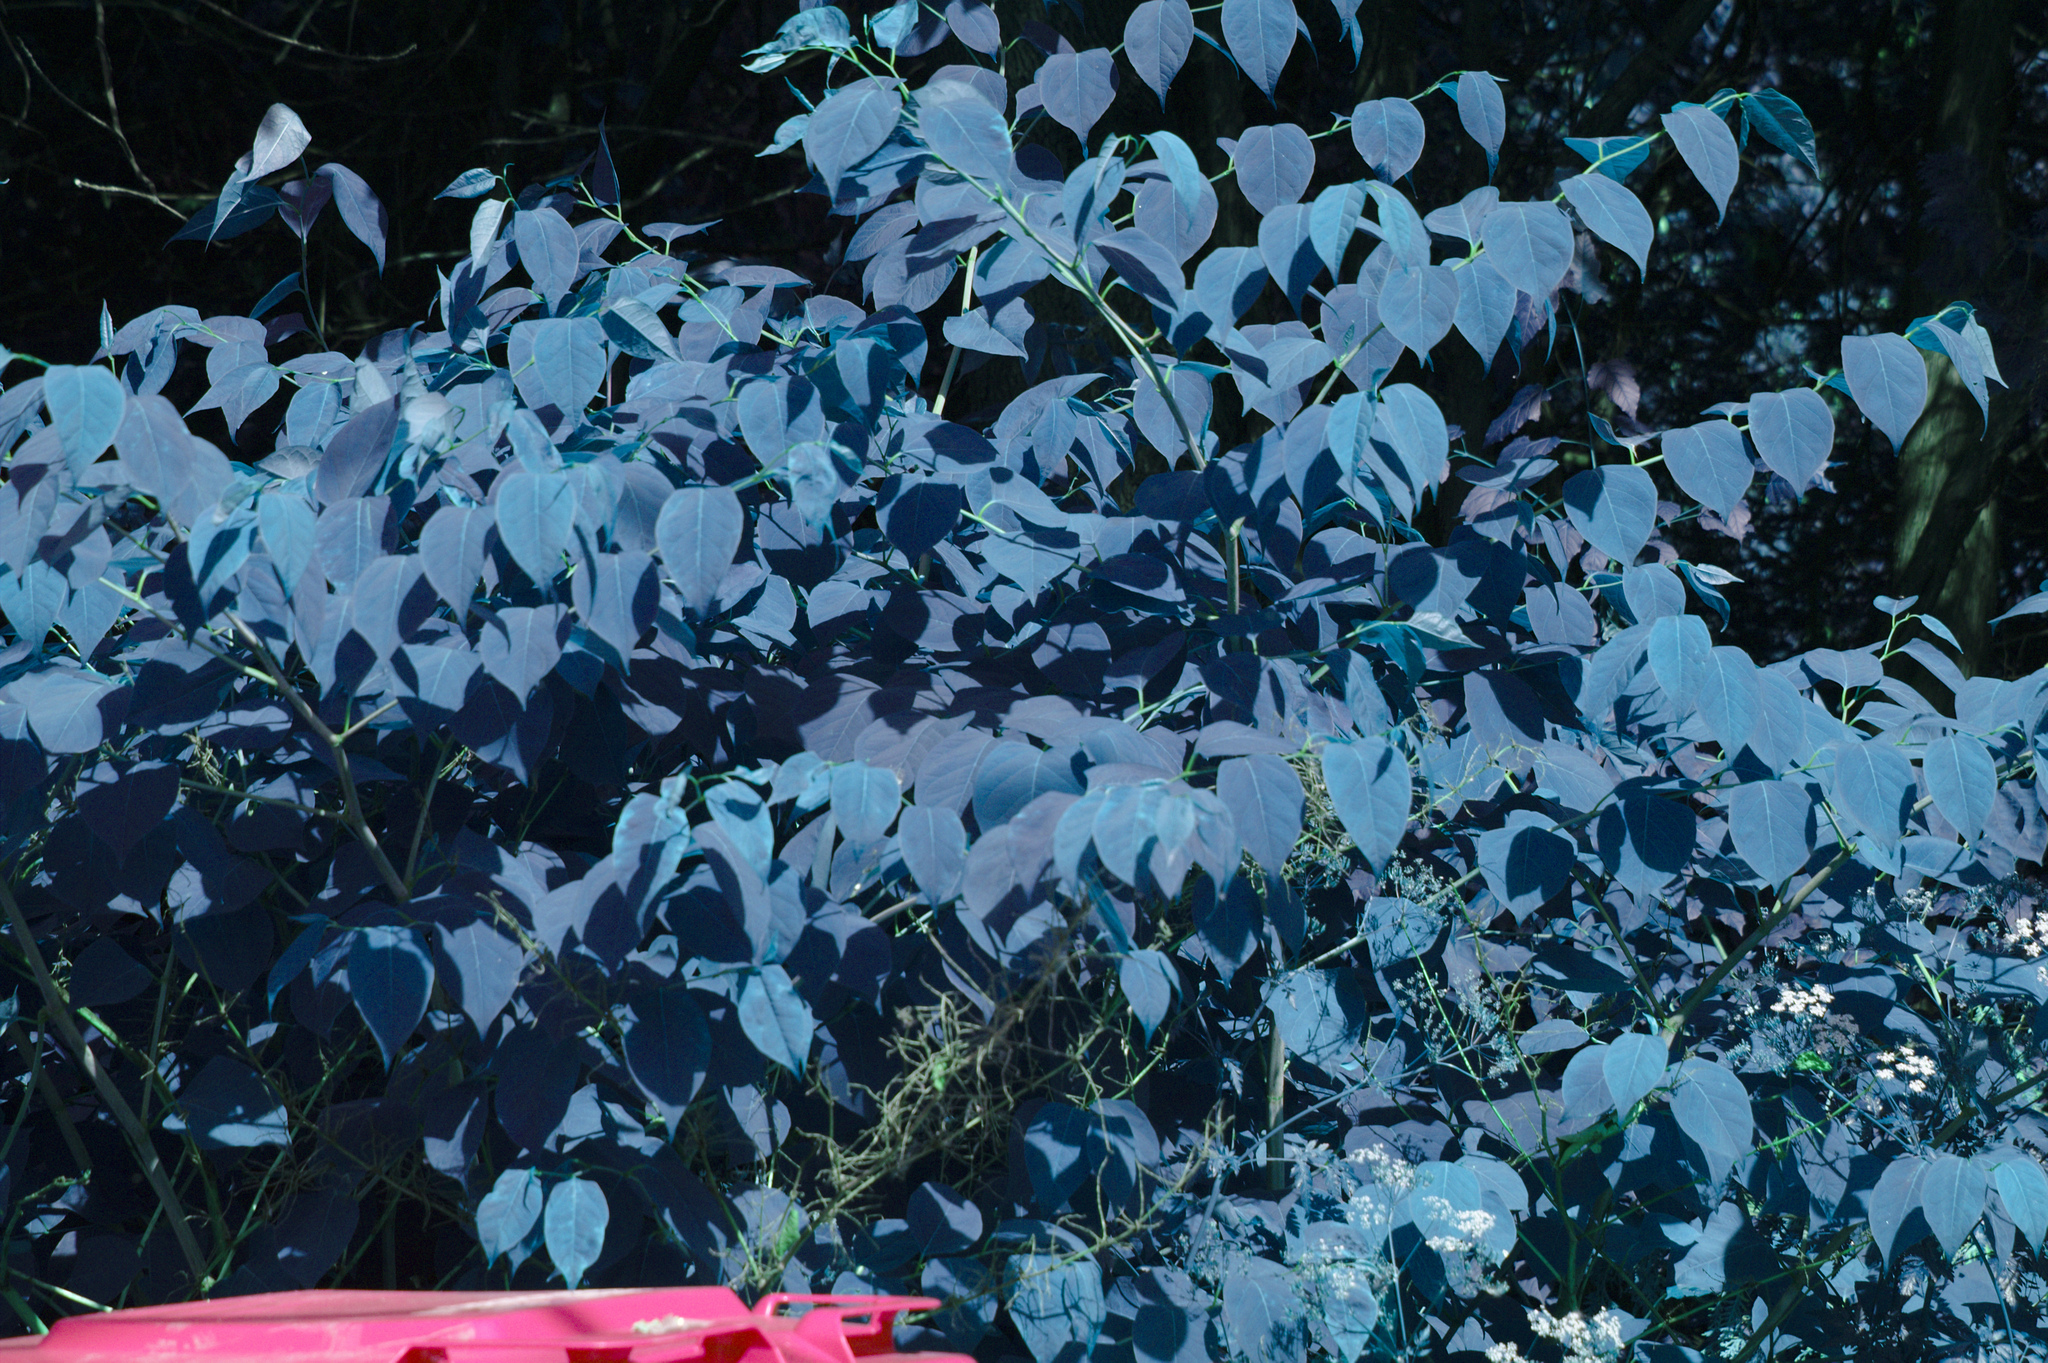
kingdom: Plantae
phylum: Tracheophyta
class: Magnoliopsida
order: Caryophyllales
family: Polygonaceae
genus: Reynoutria
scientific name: Reynoutria japonica
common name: Japanese knotweed
